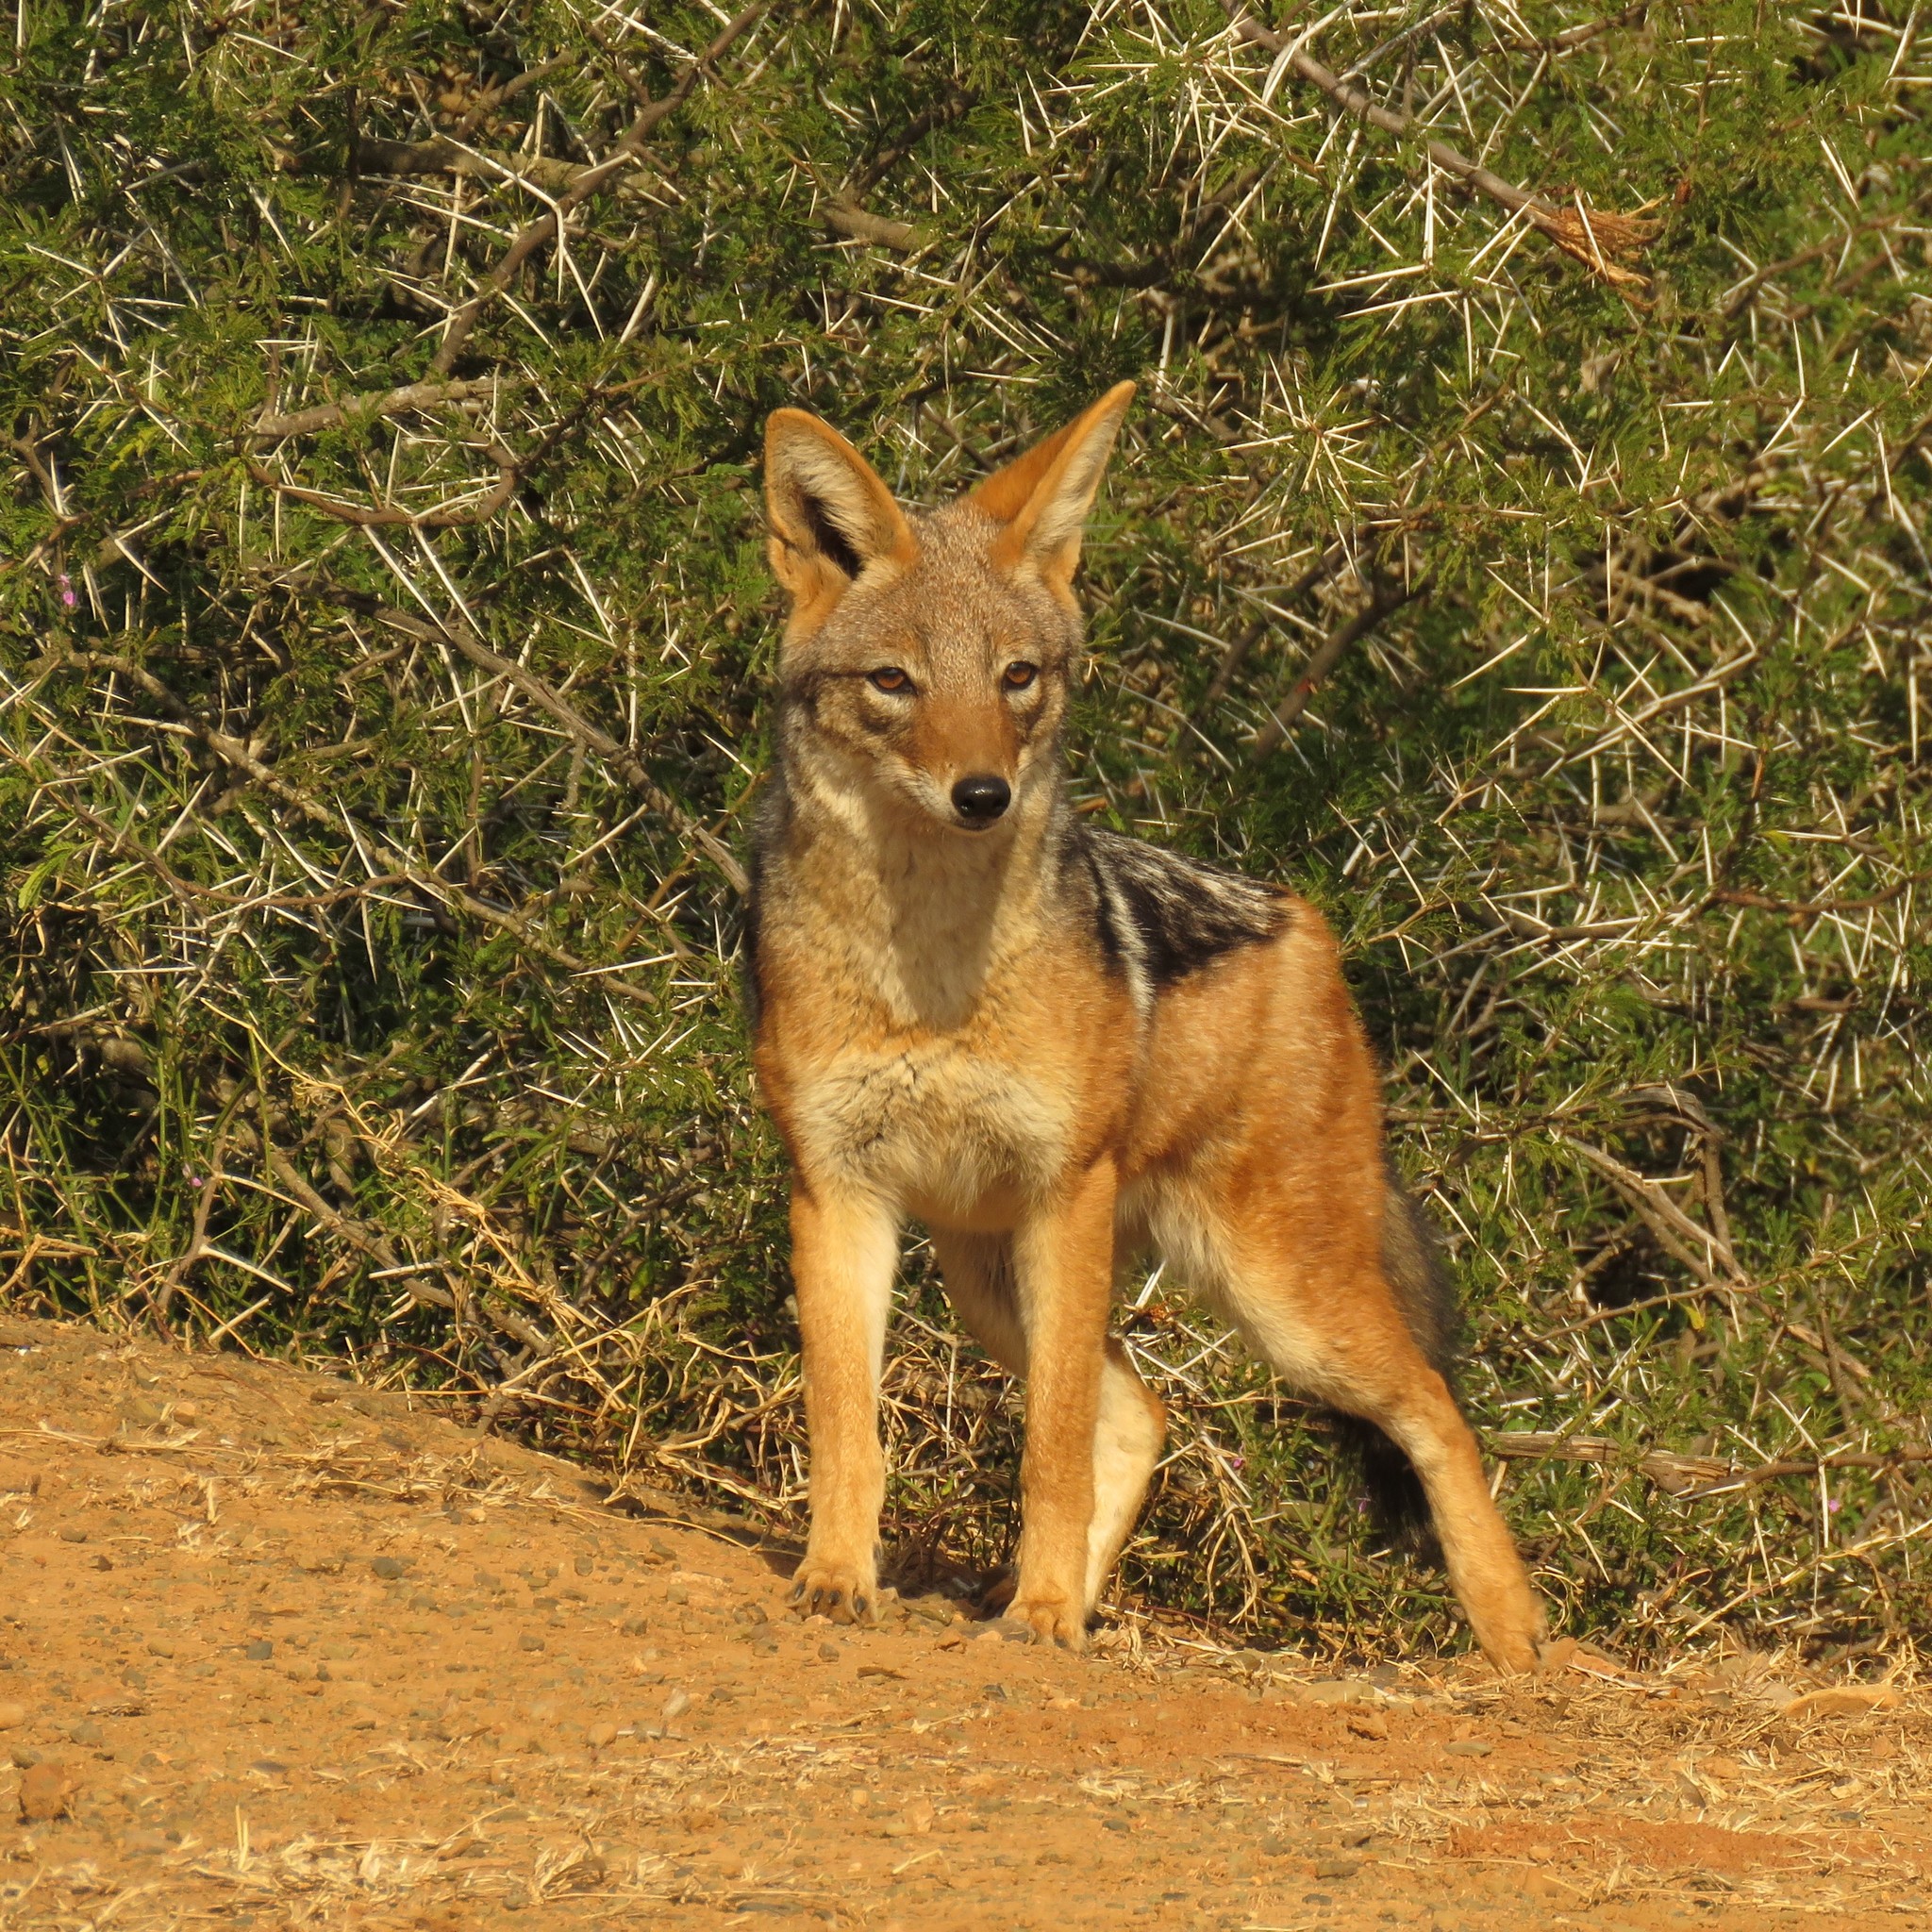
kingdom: Animalia
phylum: Chordata
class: Mammalia
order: Carnivora
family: Canidae
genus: Lupulella
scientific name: Lupulella
